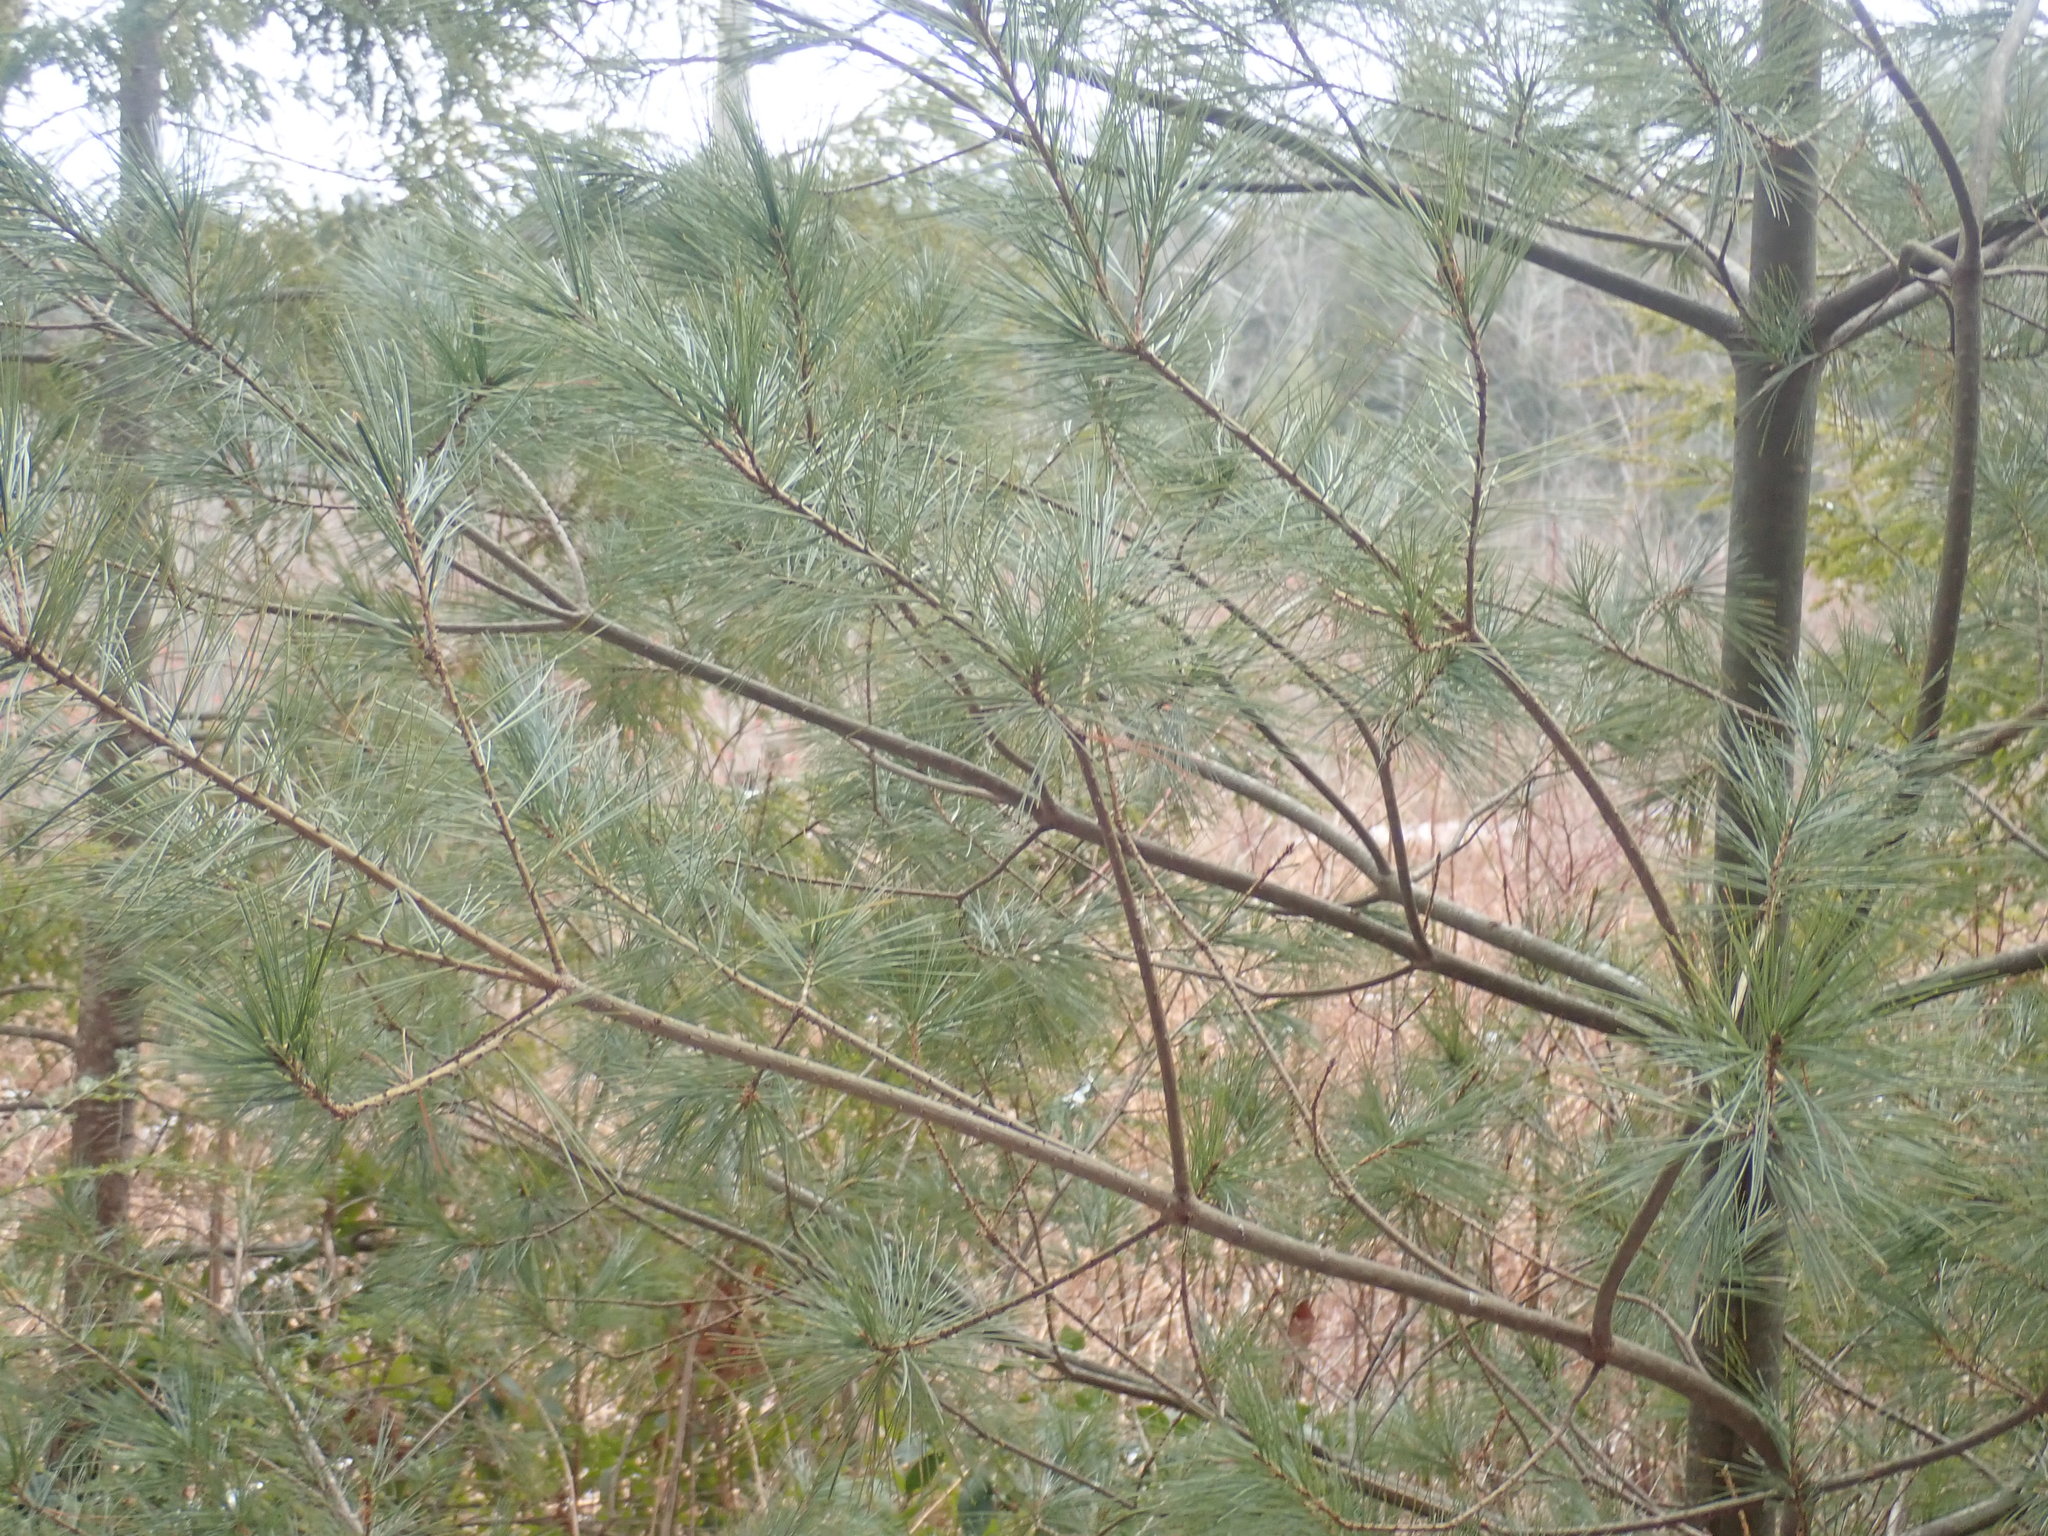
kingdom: Plantae
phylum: Tracheophyta
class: Pinopsida
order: Pinales
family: Pinaceae
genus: Pinus
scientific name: Pinus strobus
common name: Weymouth pine
